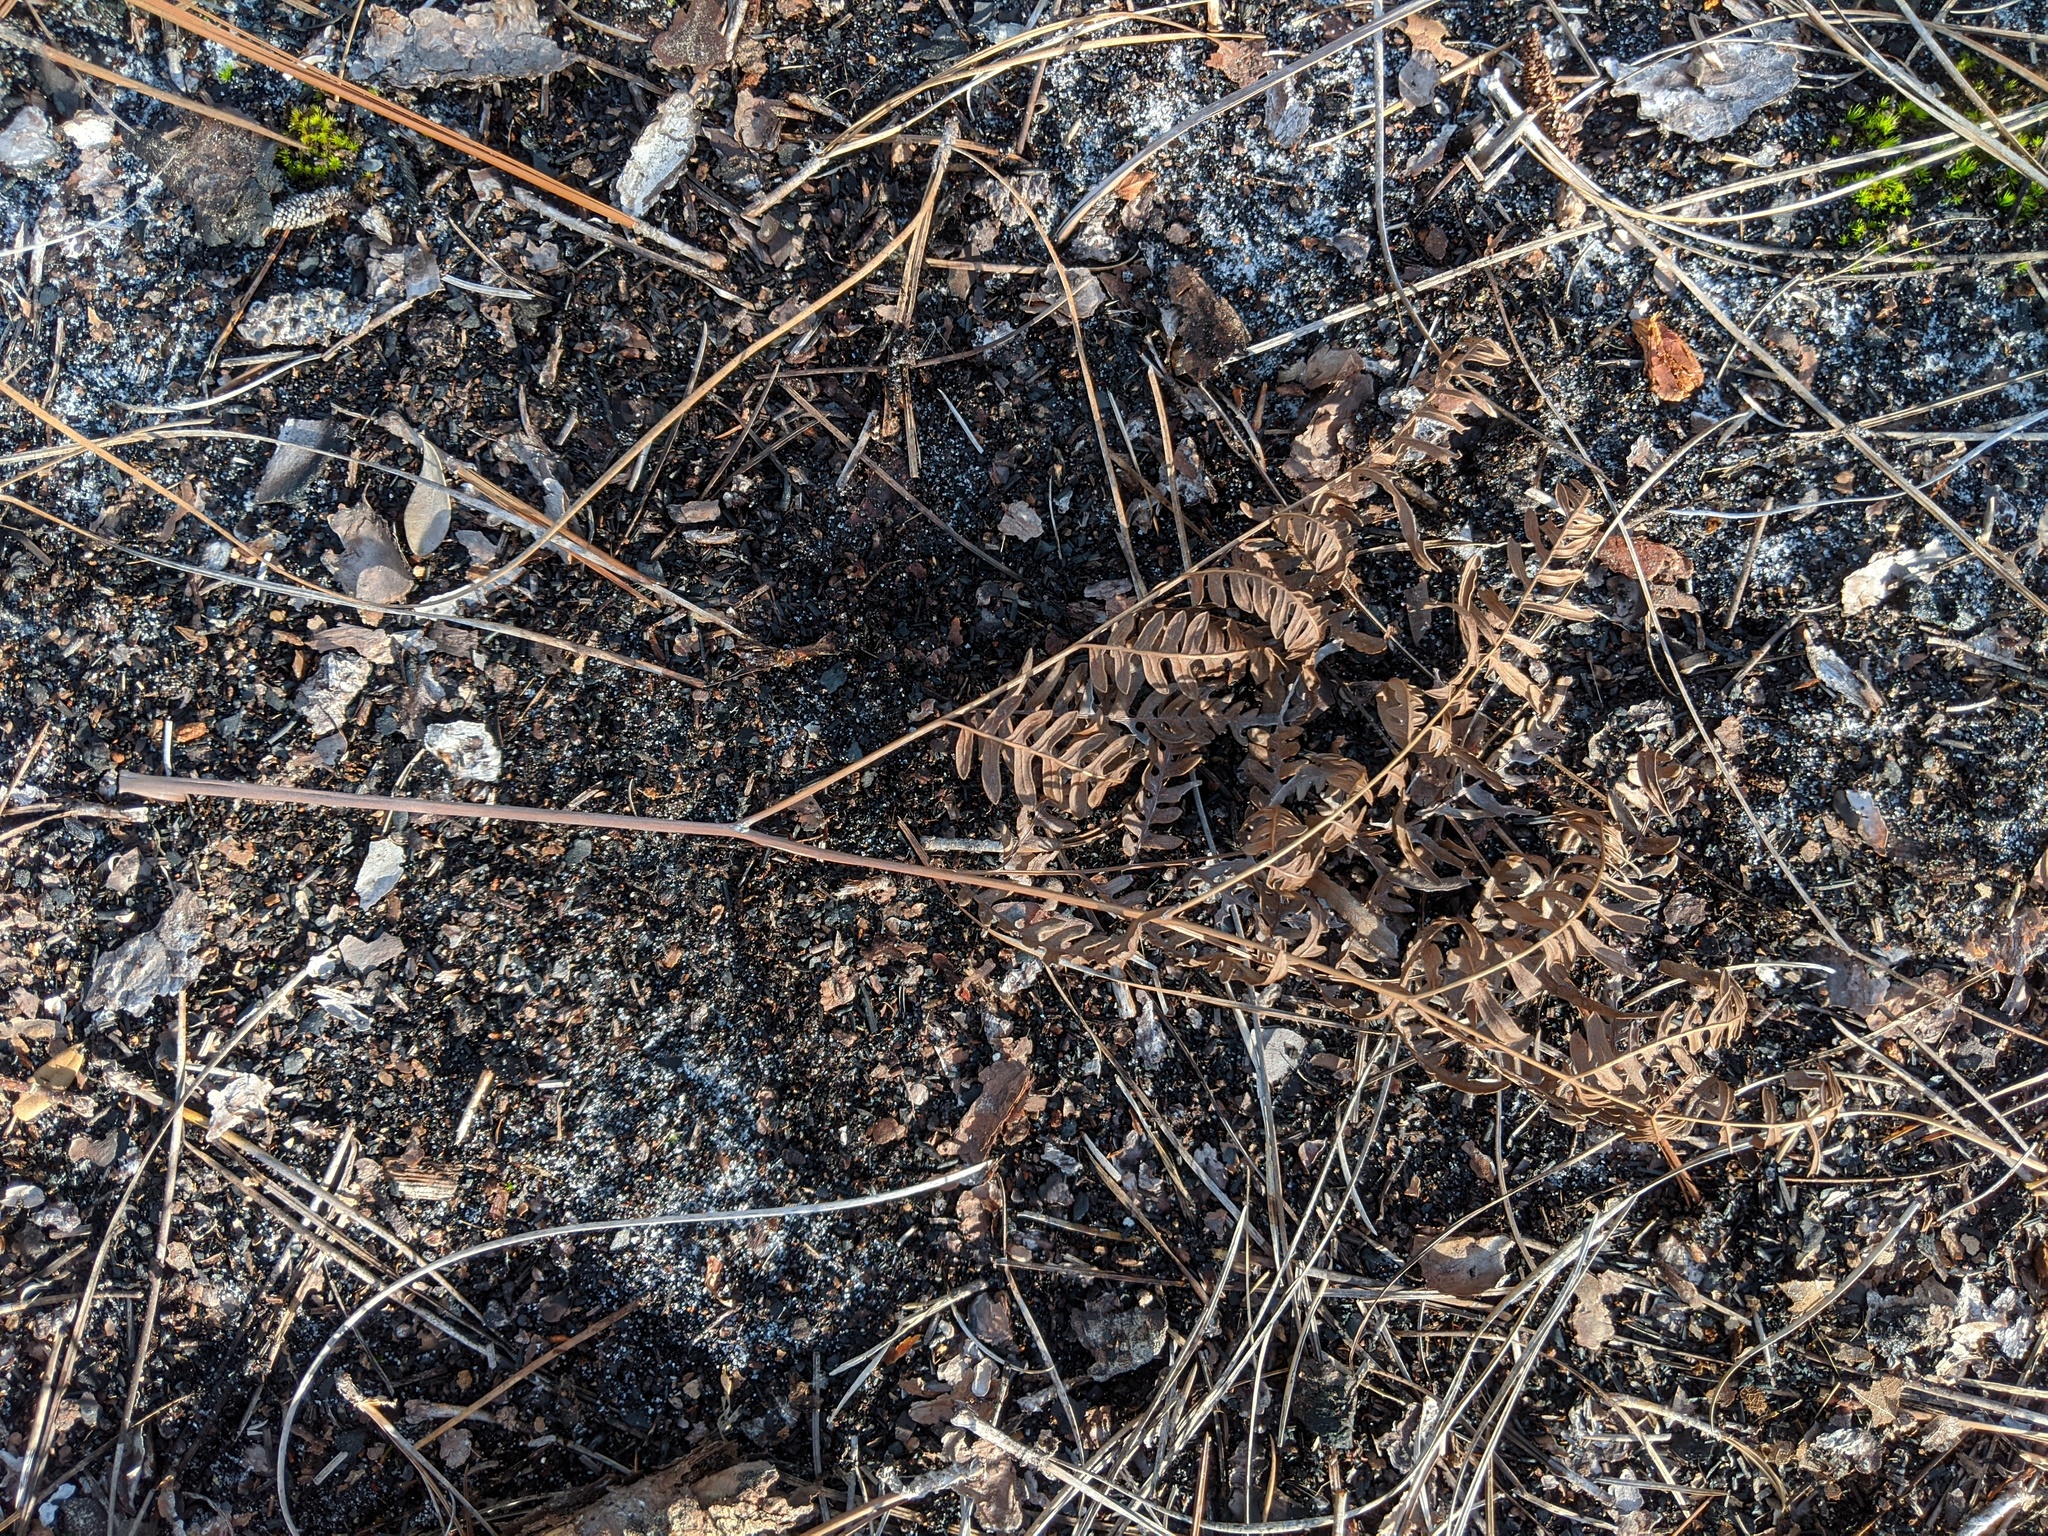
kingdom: Plantae
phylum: Tracheophyta
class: Polypodiopsida
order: Polypodiales
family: Dennstaedtiaceae
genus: Pteridium
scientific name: Pteridium aquilinum
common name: Bracken
